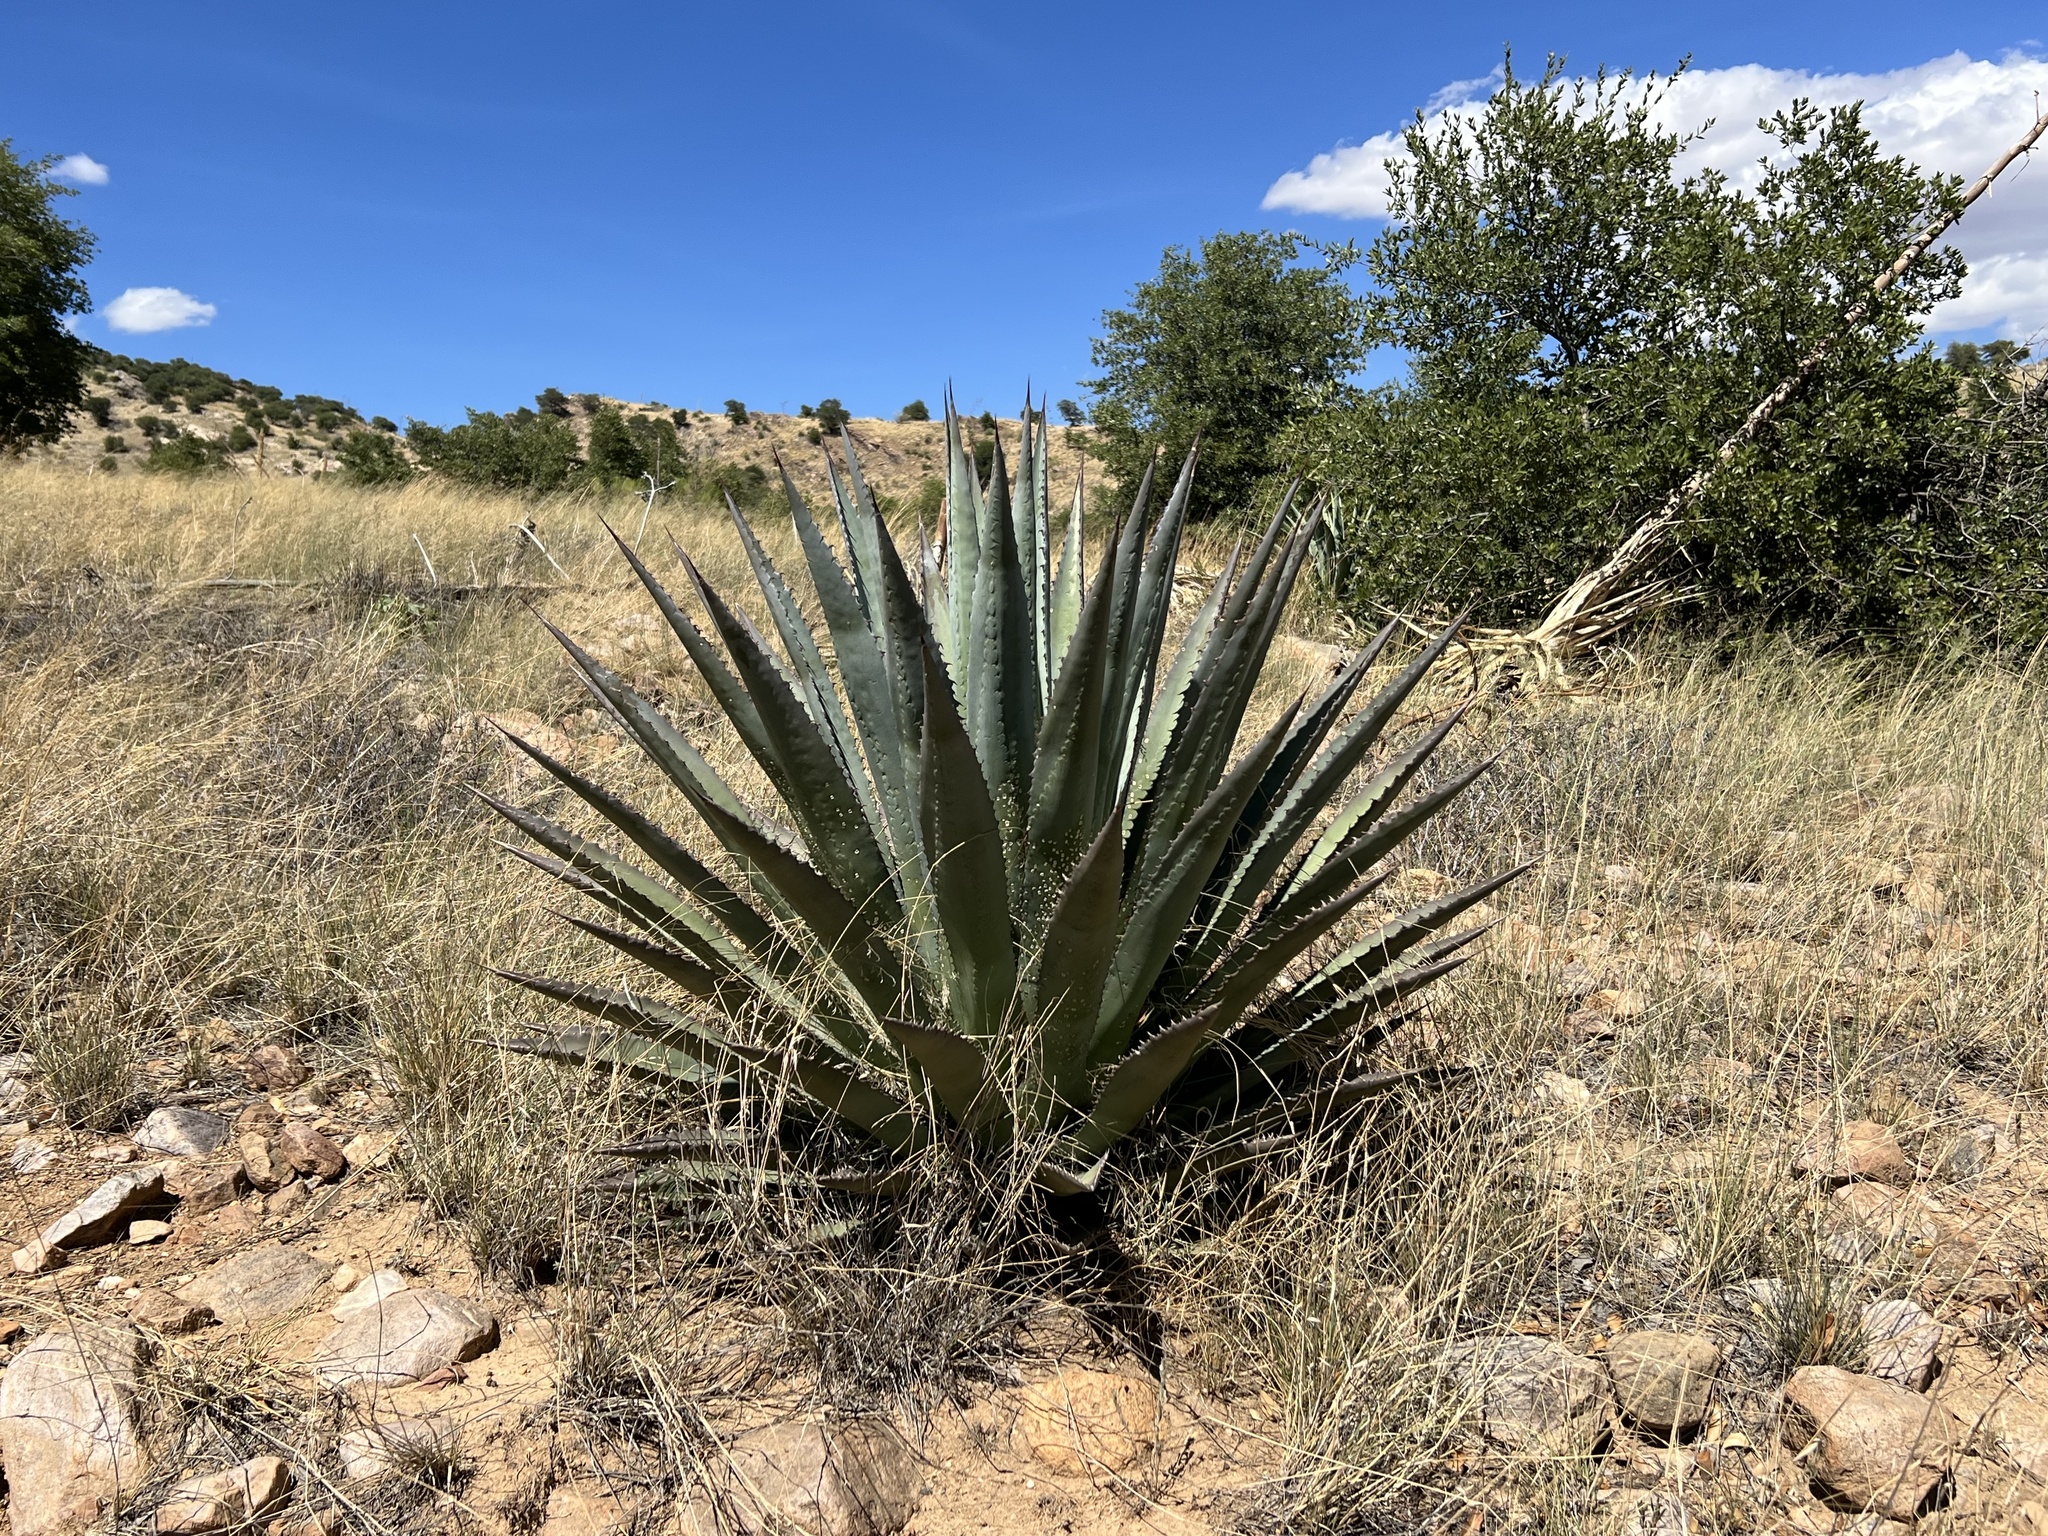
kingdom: Plantae
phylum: Tracheophyta
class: Liliopsida
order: Asparagales
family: Asparagaceae
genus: Agave
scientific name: Agave palmeri
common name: Palmer agave
